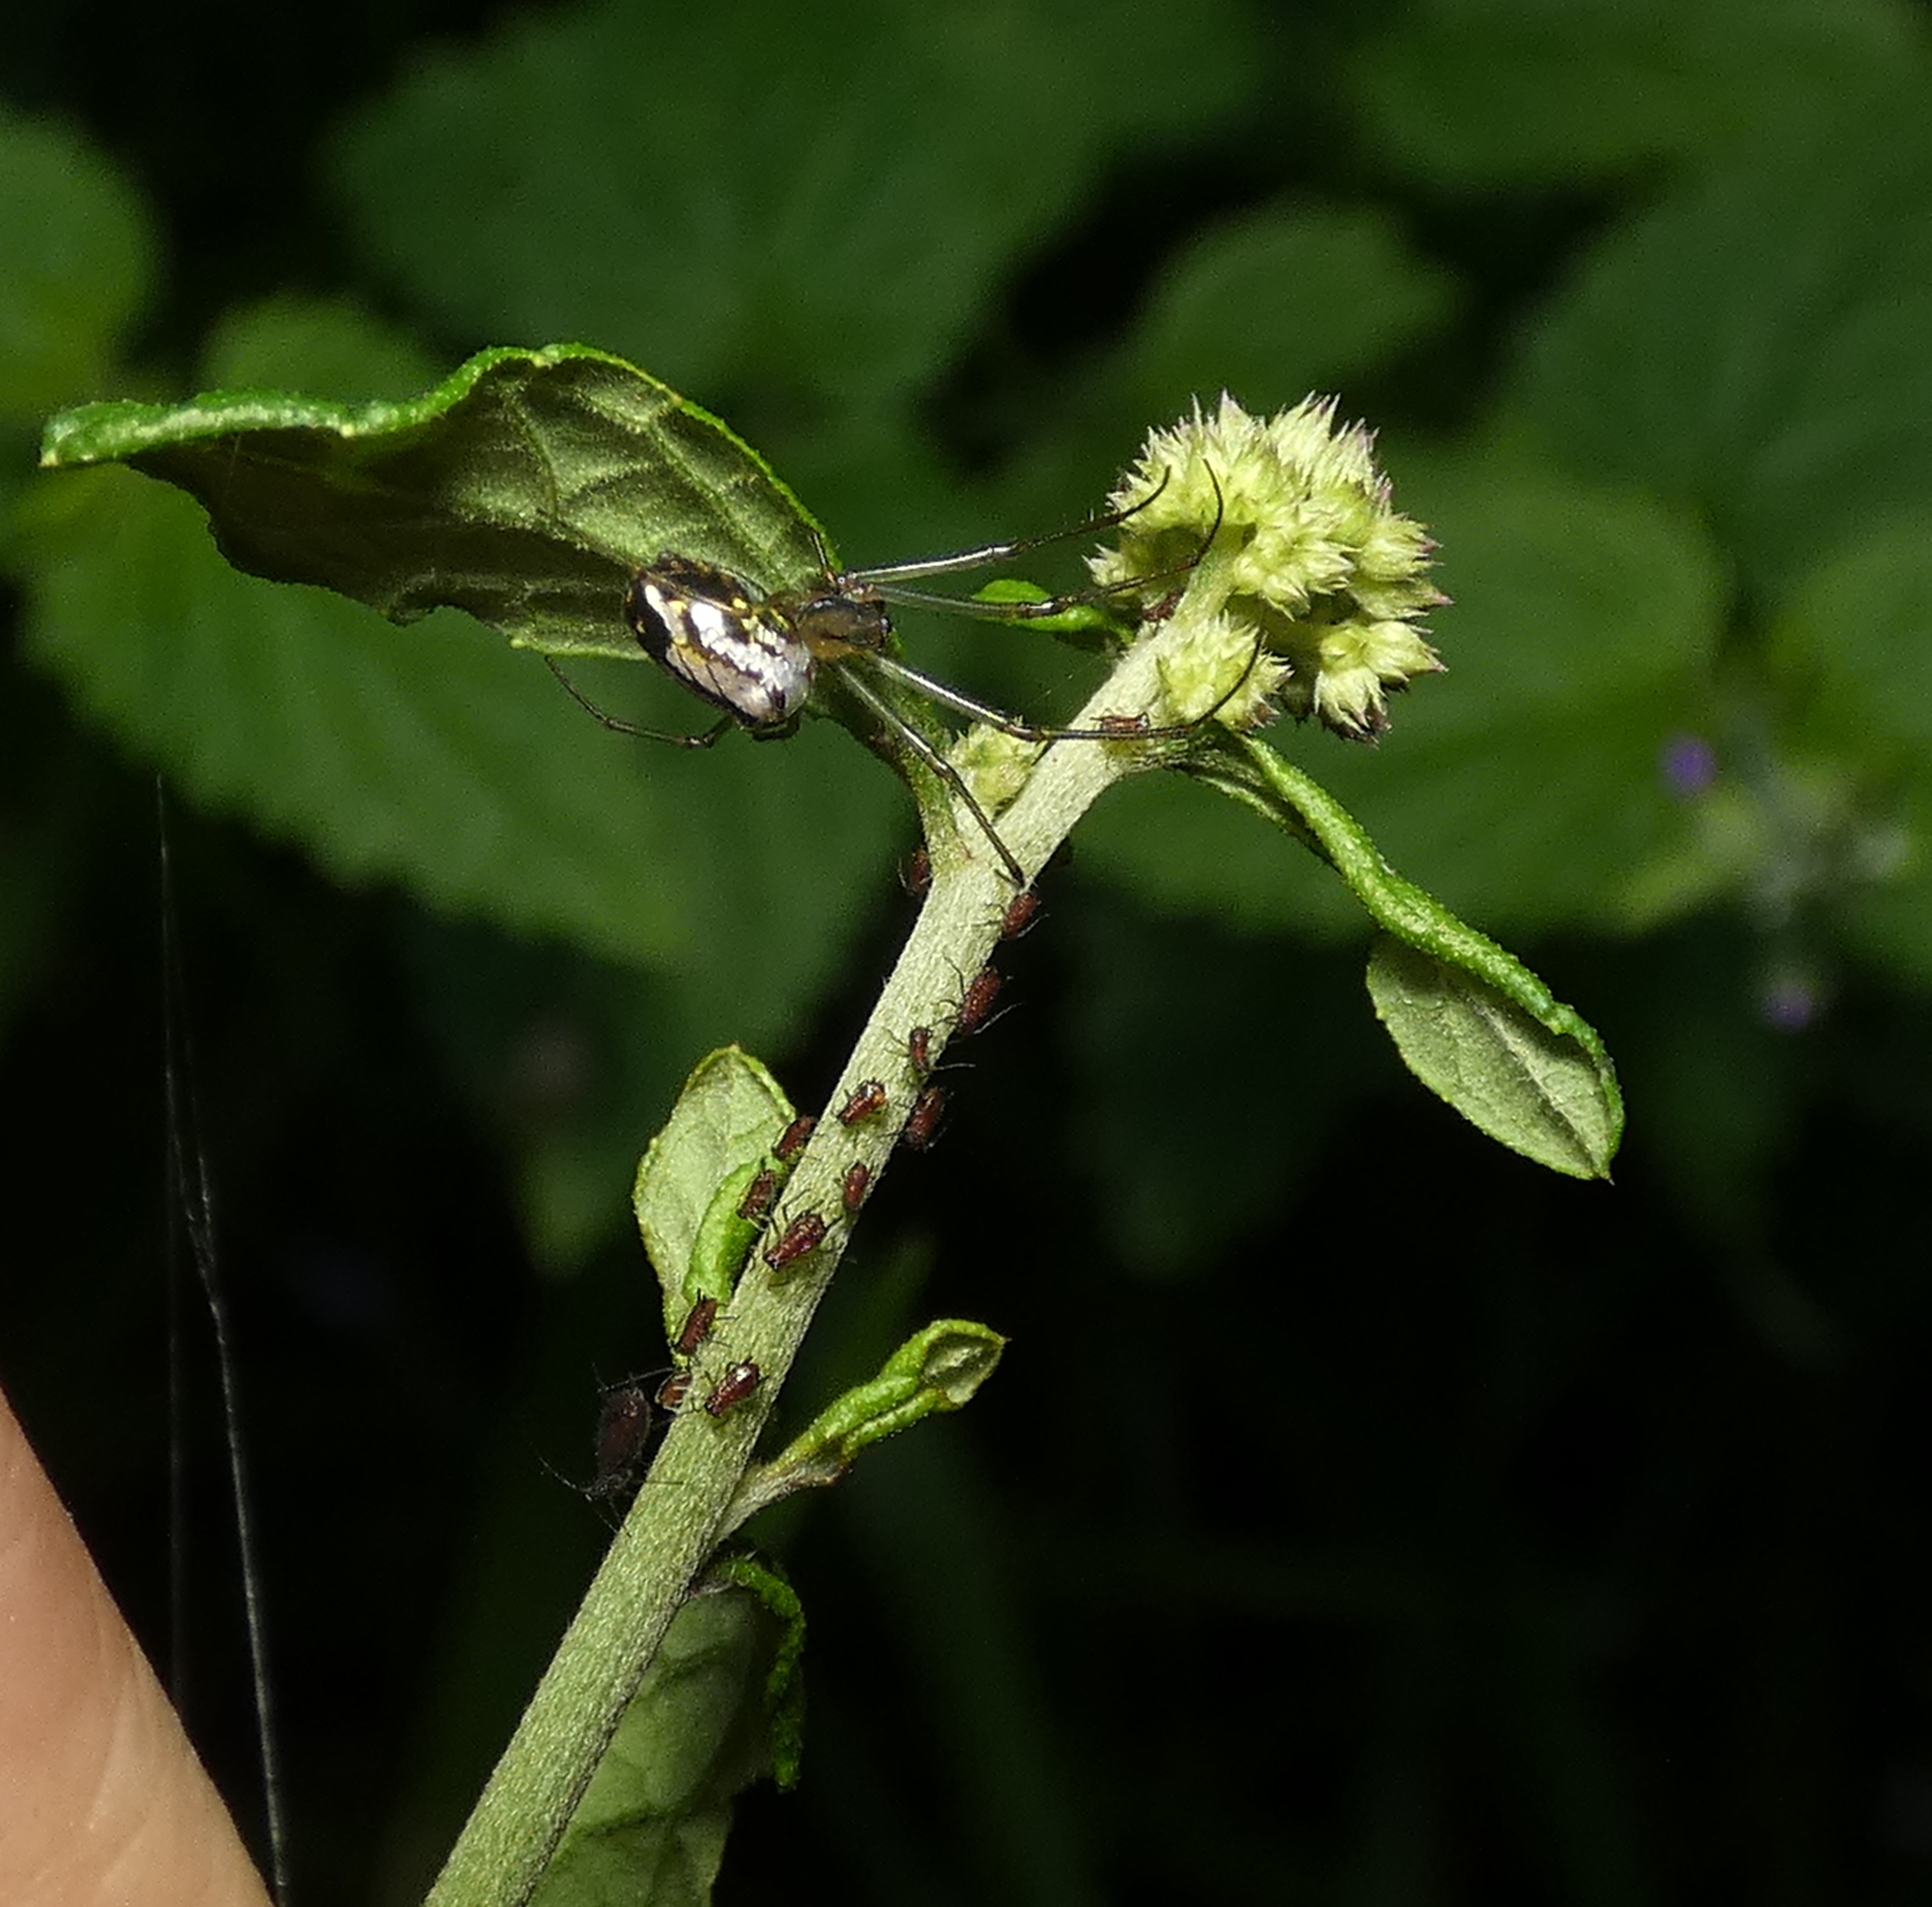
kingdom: Animalia
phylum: Arthropoda
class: Arachnida
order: Araneae
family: Tetragnathidae
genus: Leucauge
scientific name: Leucauge volupis
